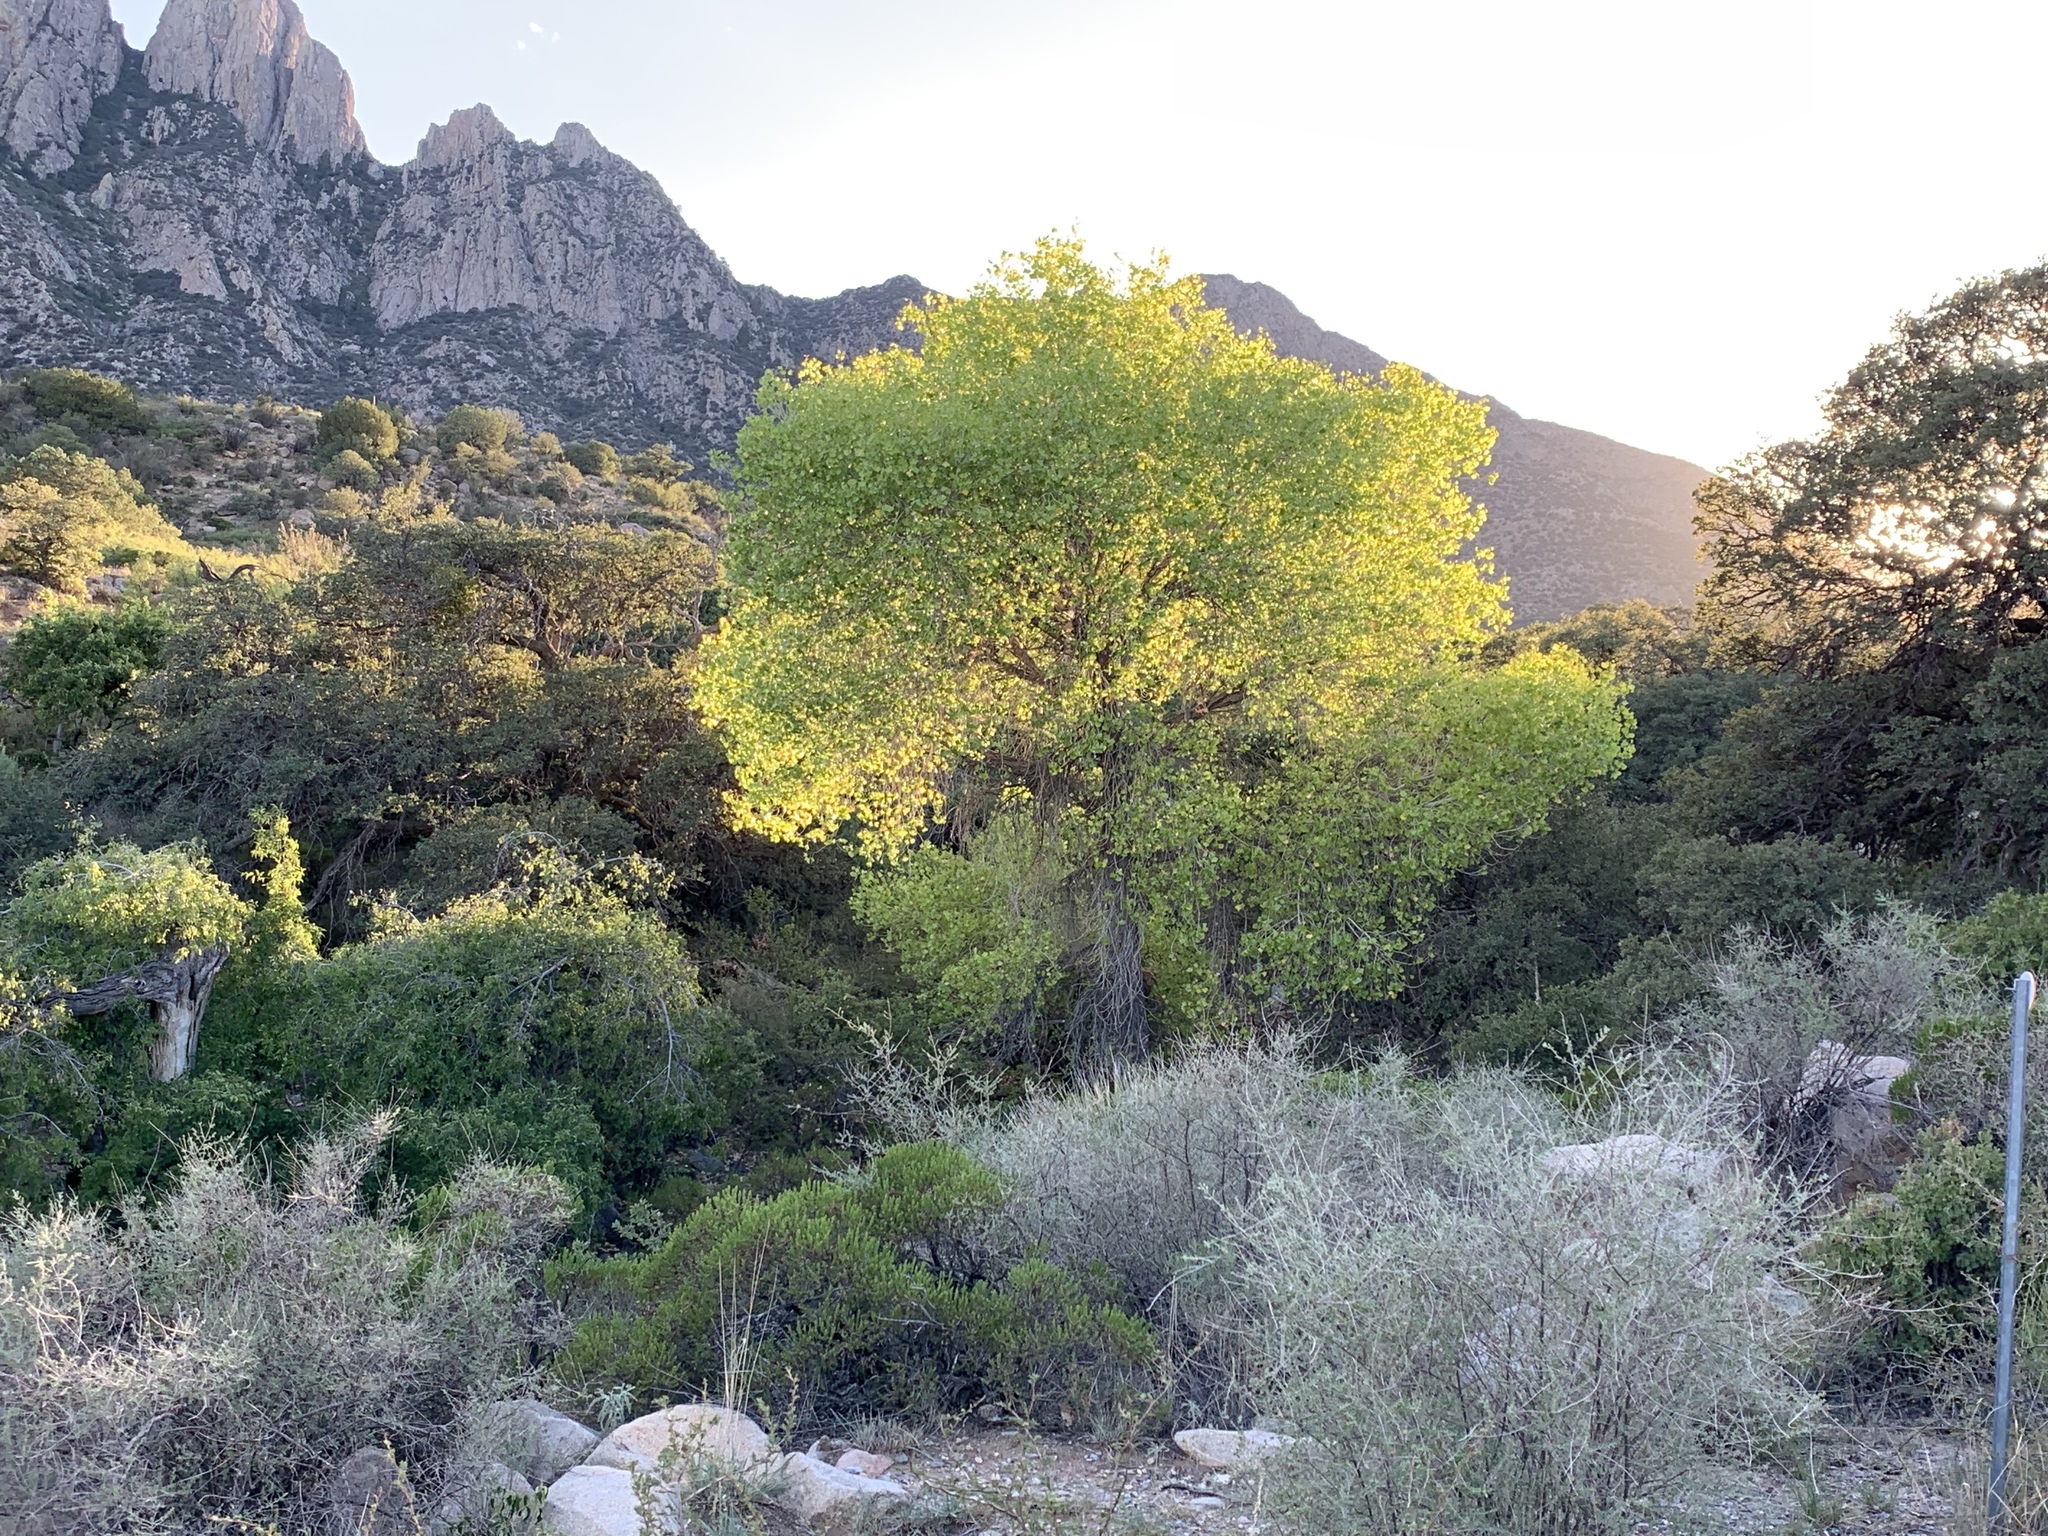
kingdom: Plantae
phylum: Tracheophyta
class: Magnoliopsida
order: Malpighiales
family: Salicaceae
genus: Populus
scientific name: Populus fremontii
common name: Fremont's cottonwood
